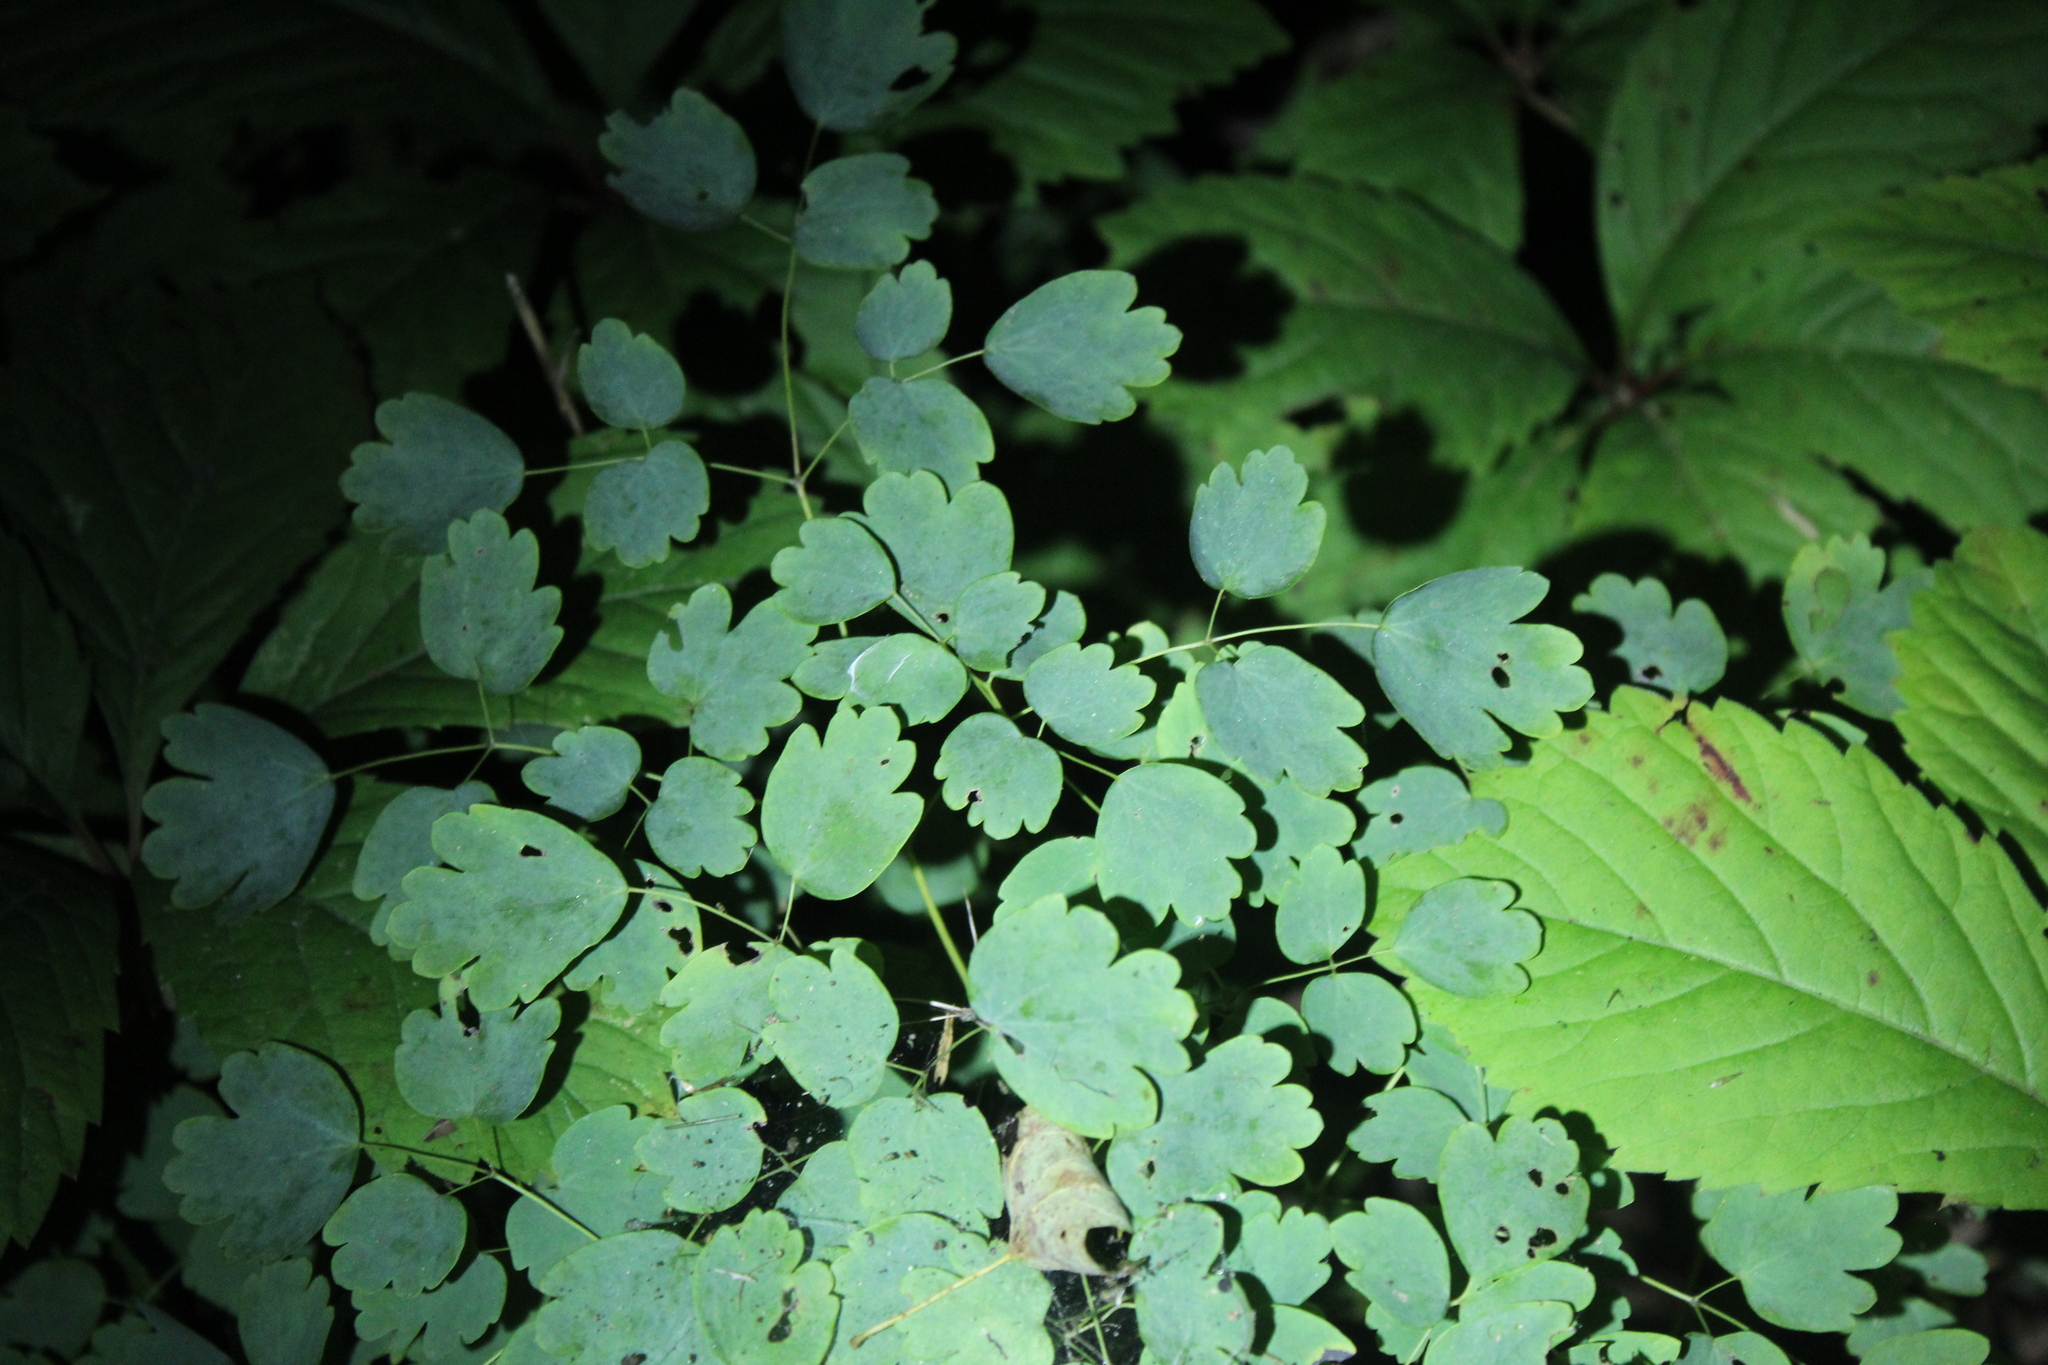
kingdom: Plantae
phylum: Tracheophyta
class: Magnoliopsida
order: Ranunculales
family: Ranunculaceae
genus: Thalictrum
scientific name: Thalictrum dioicum
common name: Early meadow-rue
